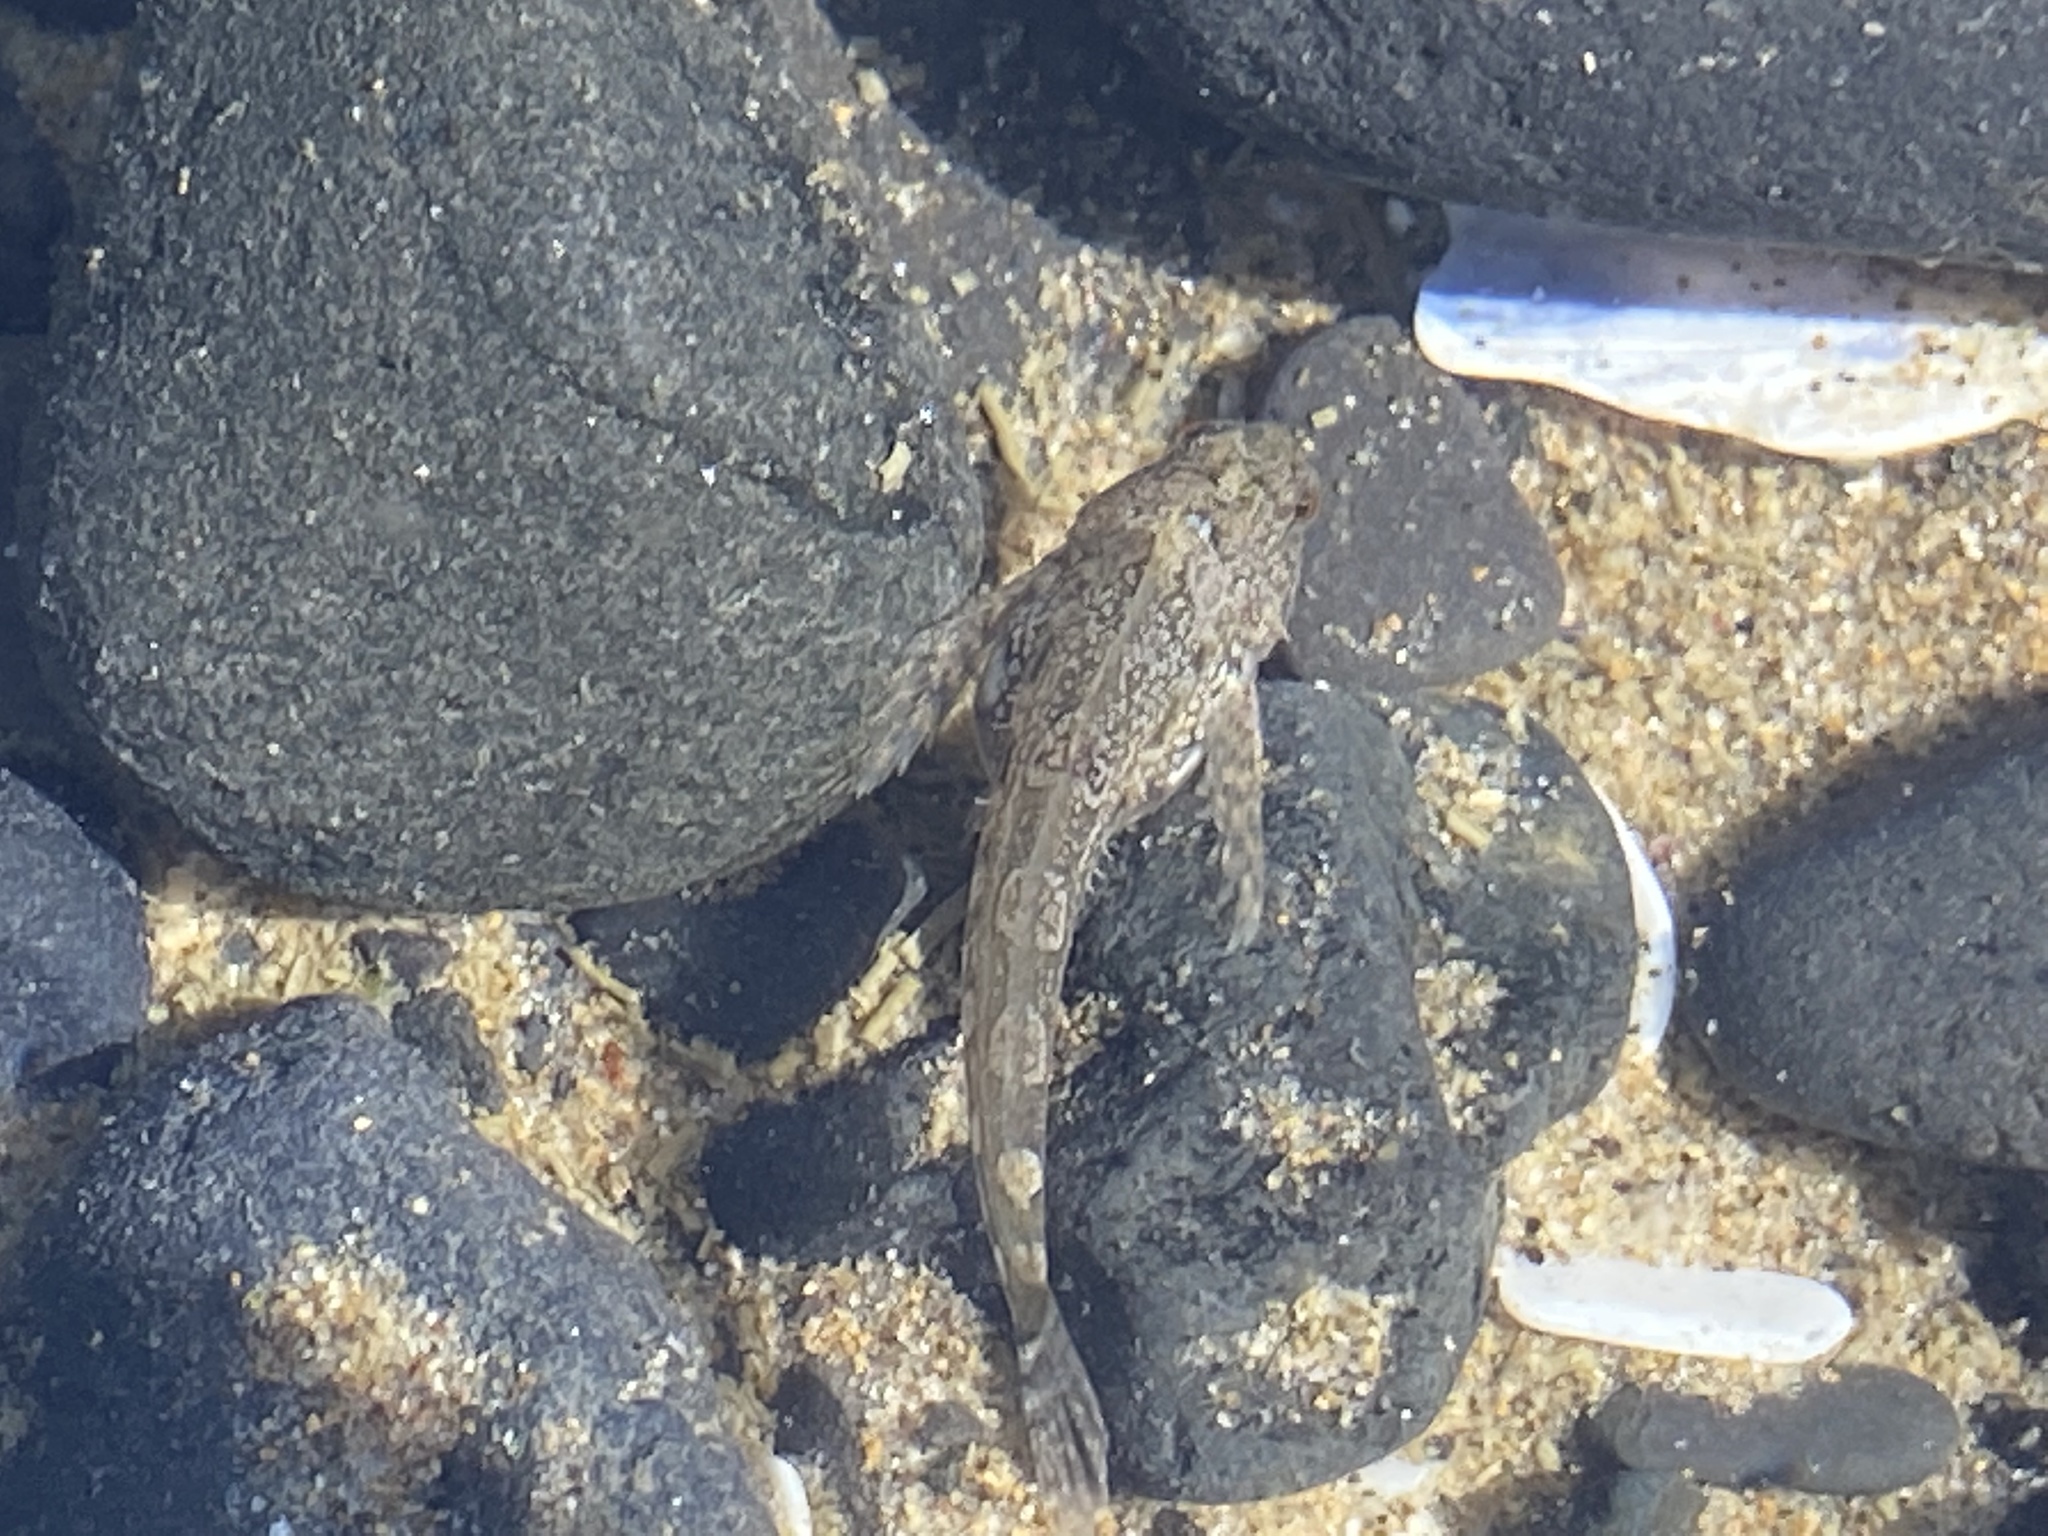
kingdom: Animalia
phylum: Chordata
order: Scorpaeniformes
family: Cottidae
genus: Oligocottus
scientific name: Oligocottus maculosus
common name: Tidepool sculpin
